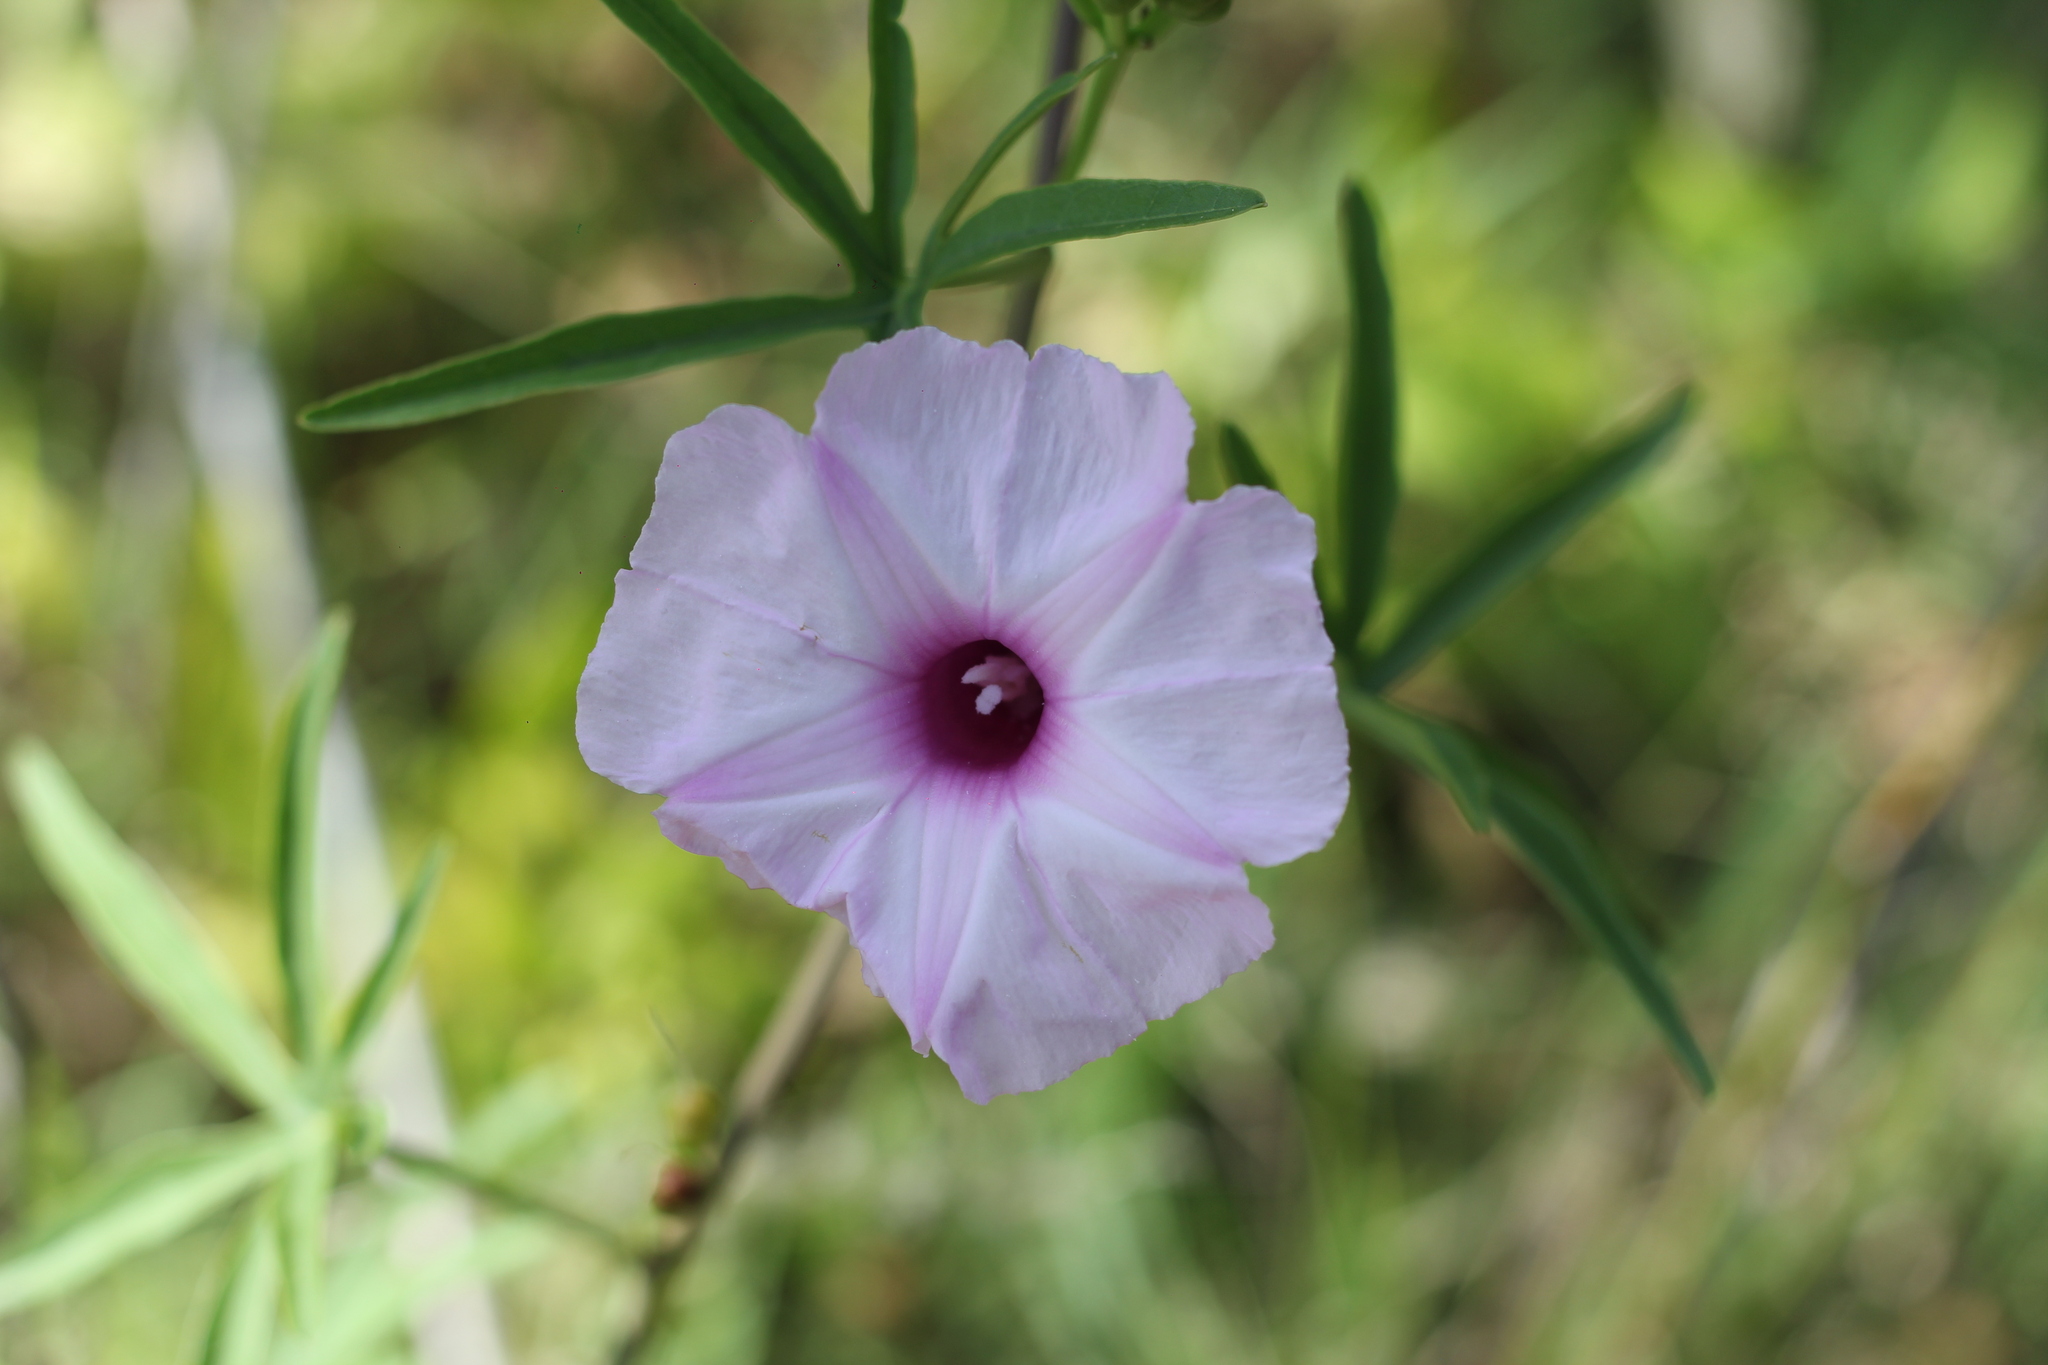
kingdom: Plantae
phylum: Tracheophyta
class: Magnoliopsida
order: Solanales
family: Convolvulaceae
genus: Ipomoea
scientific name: Ipomoea platensis
